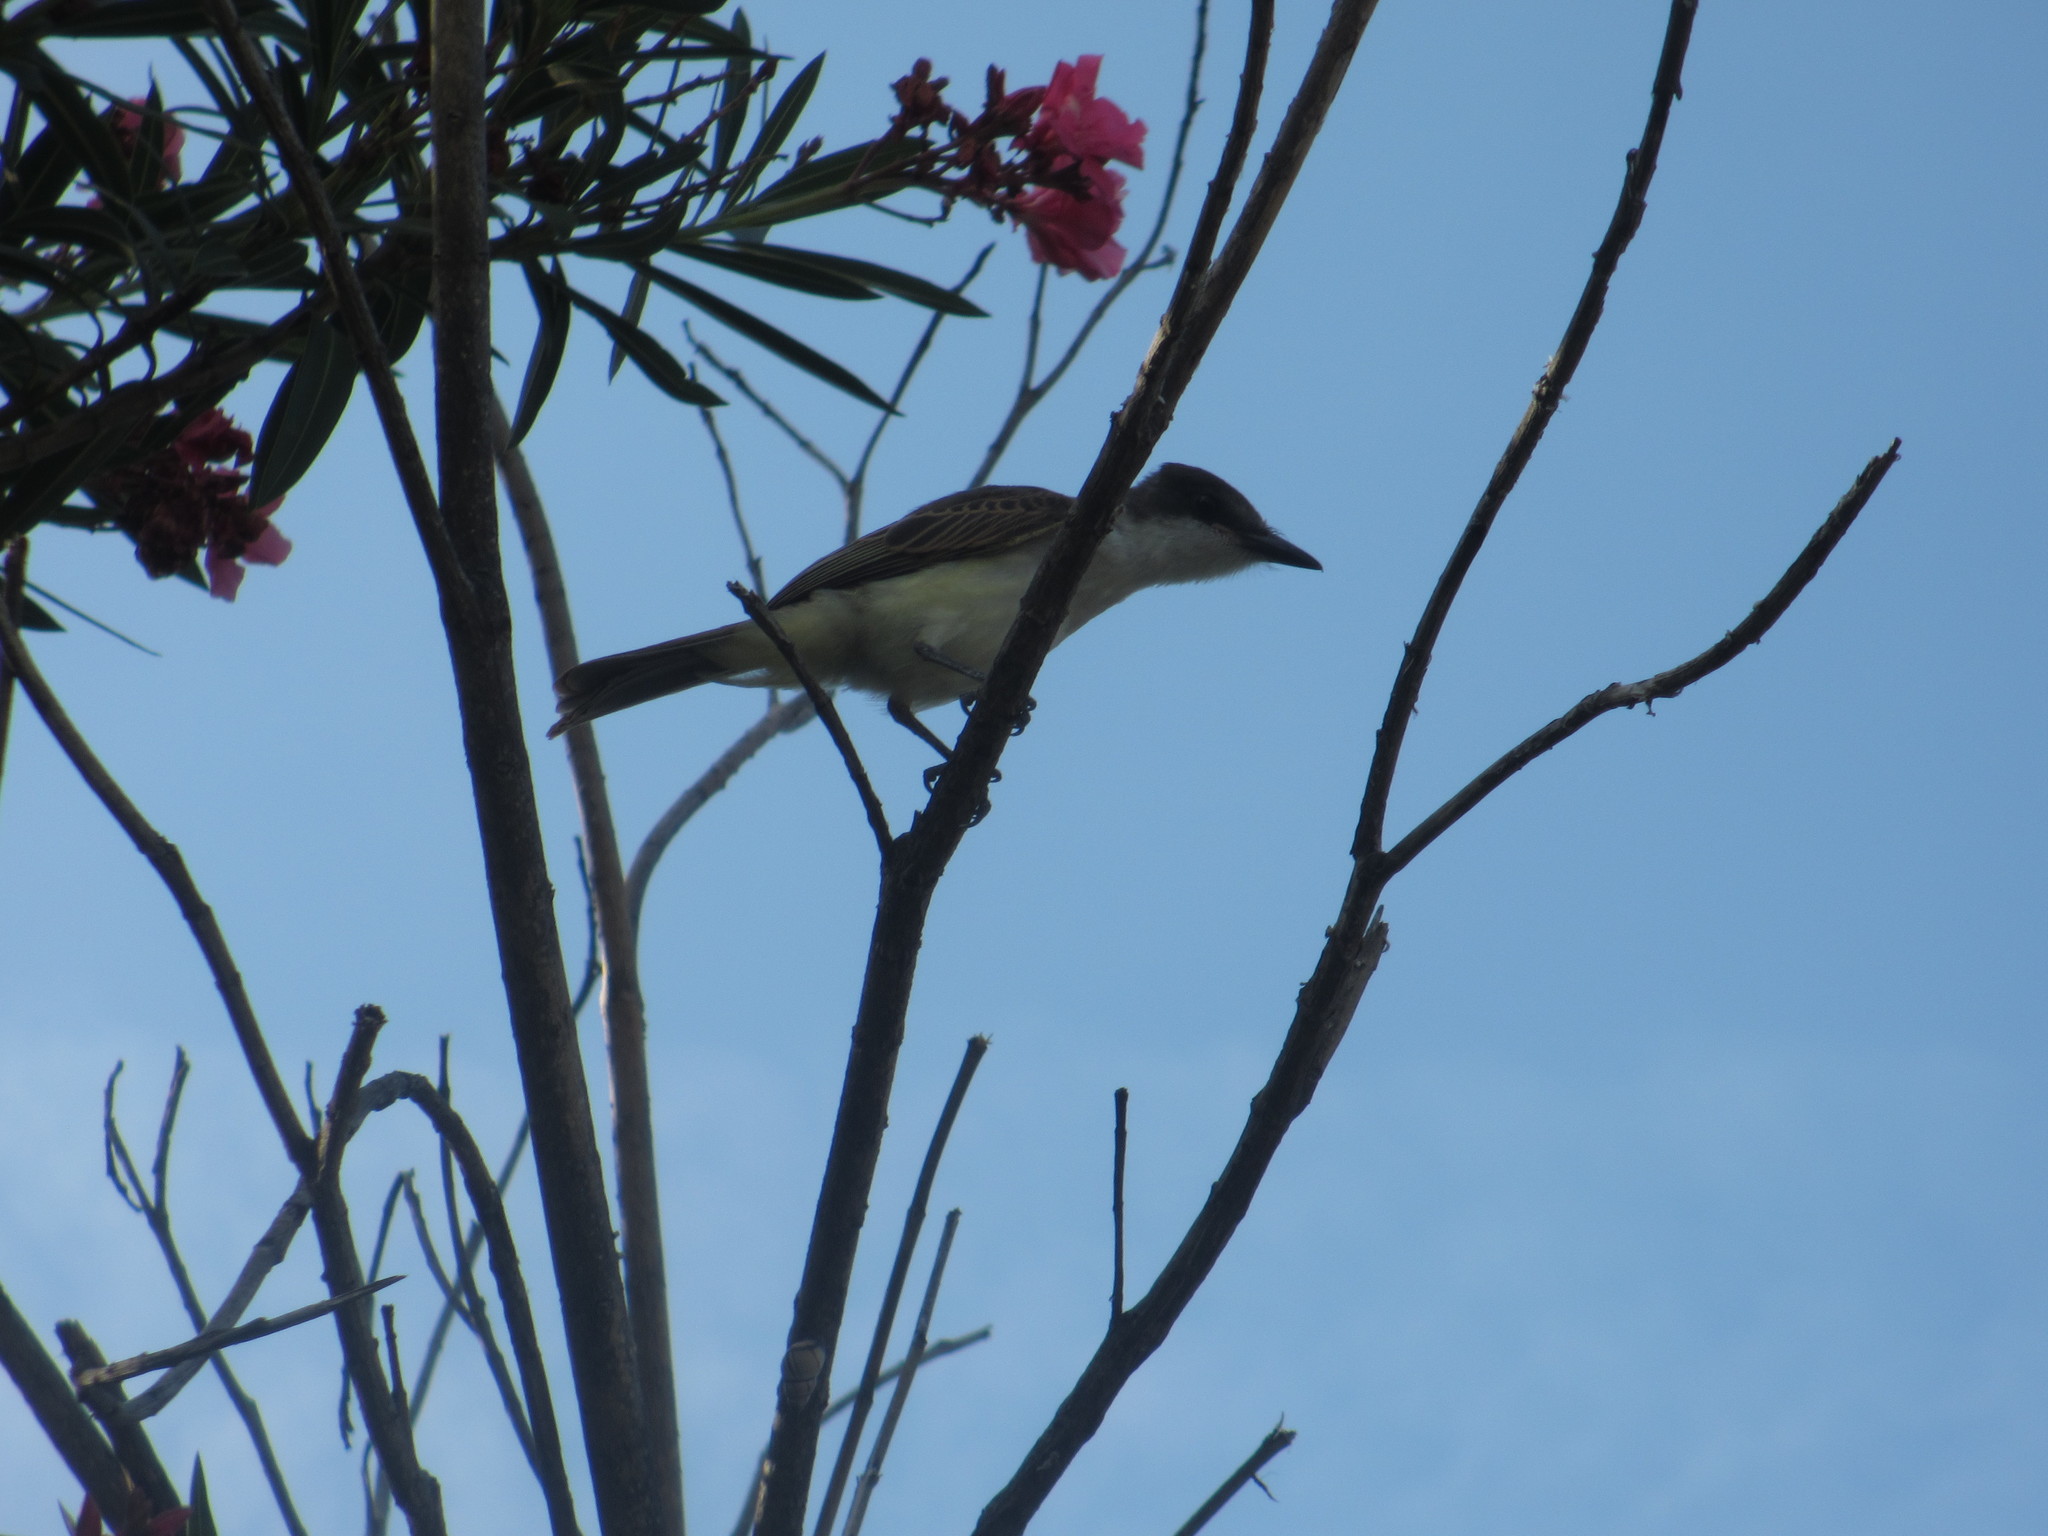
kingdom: Animalia
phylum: Chordata
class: Aves
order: Passeriformes
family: Tyrannidae
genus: Tyrannus
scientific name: Tyrannus caudifasciatus
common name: Loggerhead kingbird
